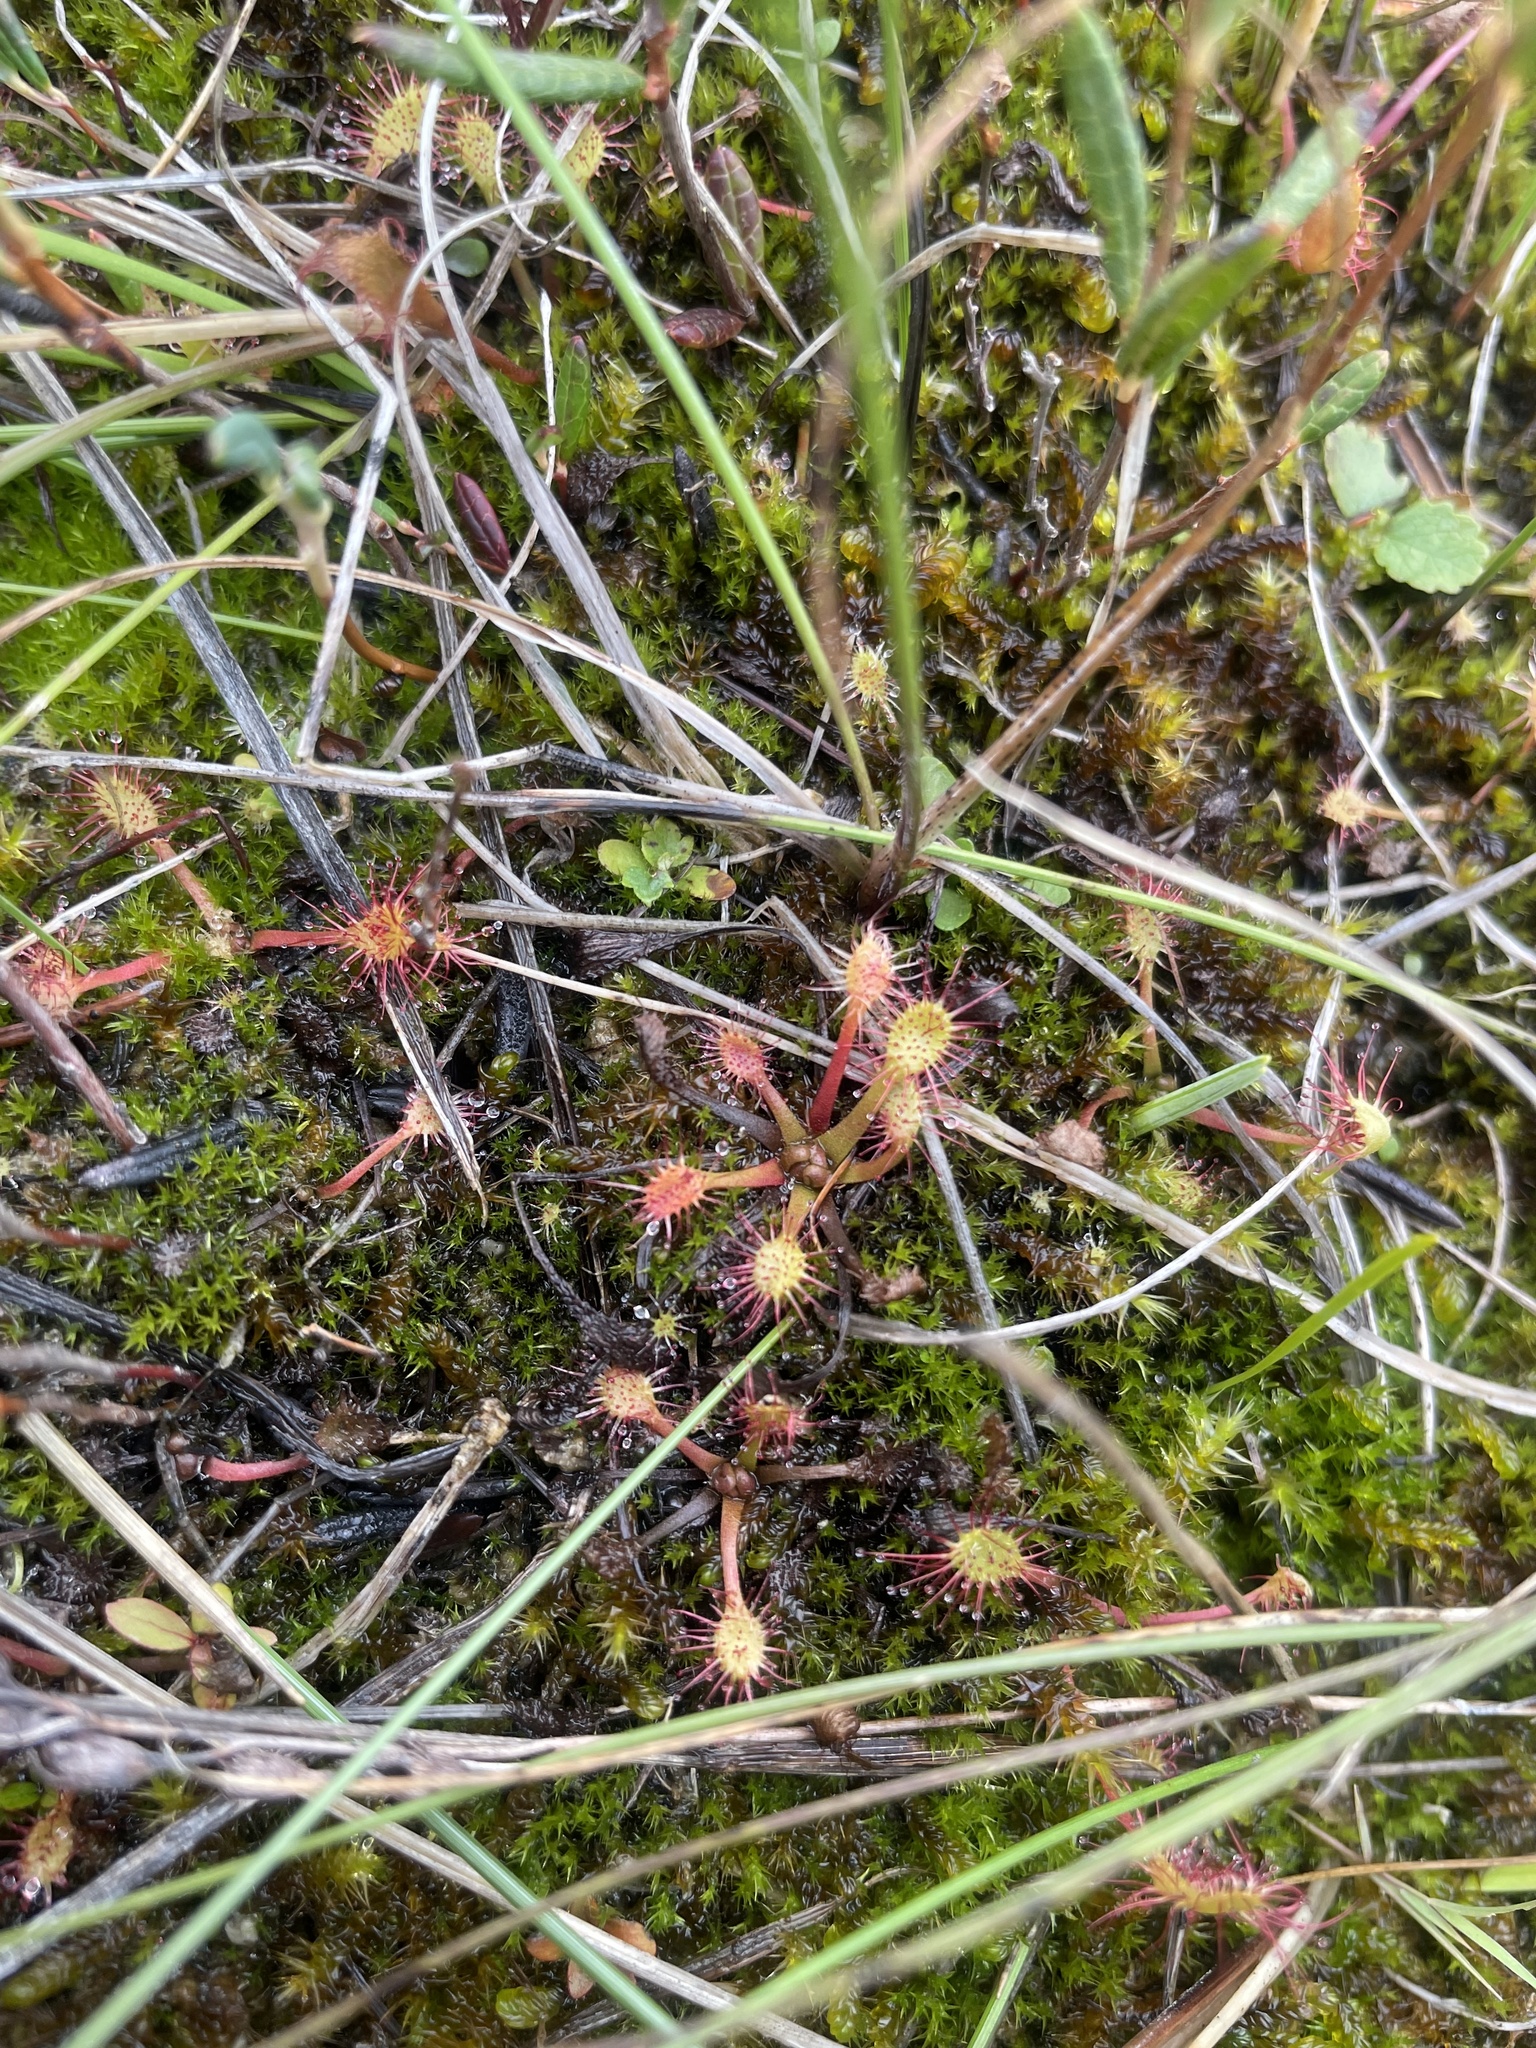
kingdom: Plantae
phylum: Tracheophyta
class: Magnoliopsida
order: Caryophyllales
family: Droseraceae
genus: Drosera
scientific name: Drosera anglica
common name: Great sundew
